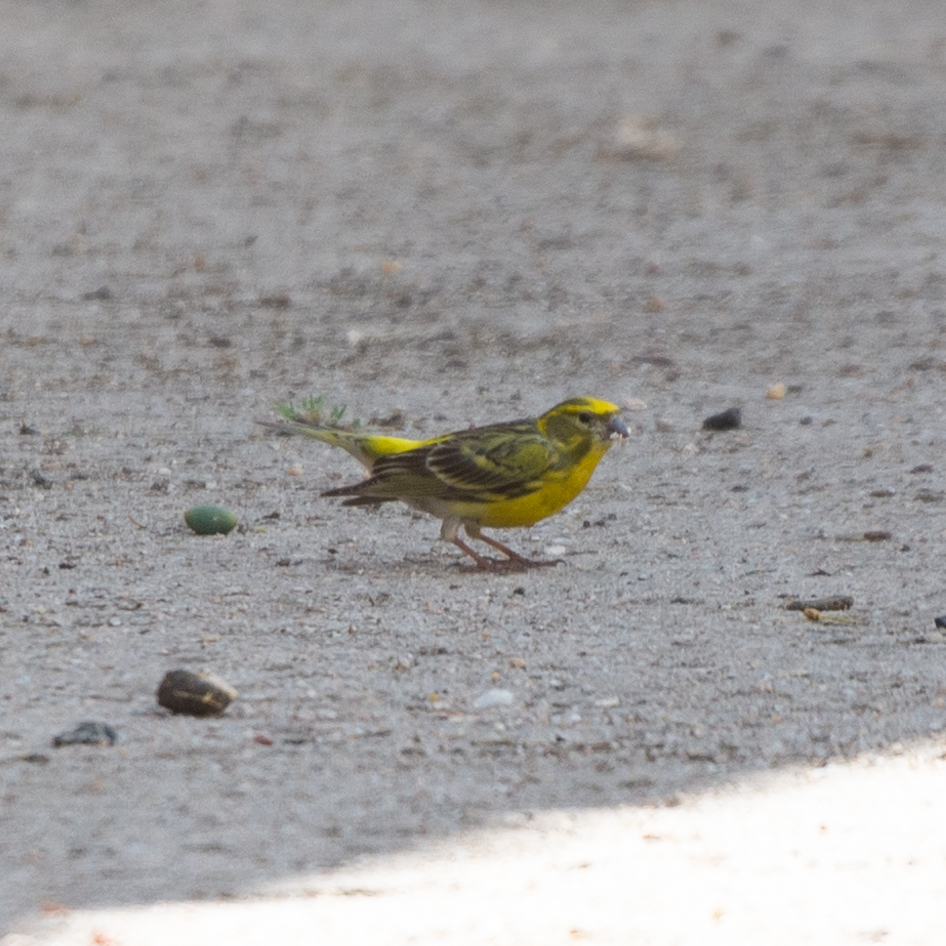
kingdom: Animalia
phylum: Chordata
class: Aves
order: Passeriformes
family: Fringillidae
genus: Serinus
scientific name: Serinus serinus
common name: European serin
